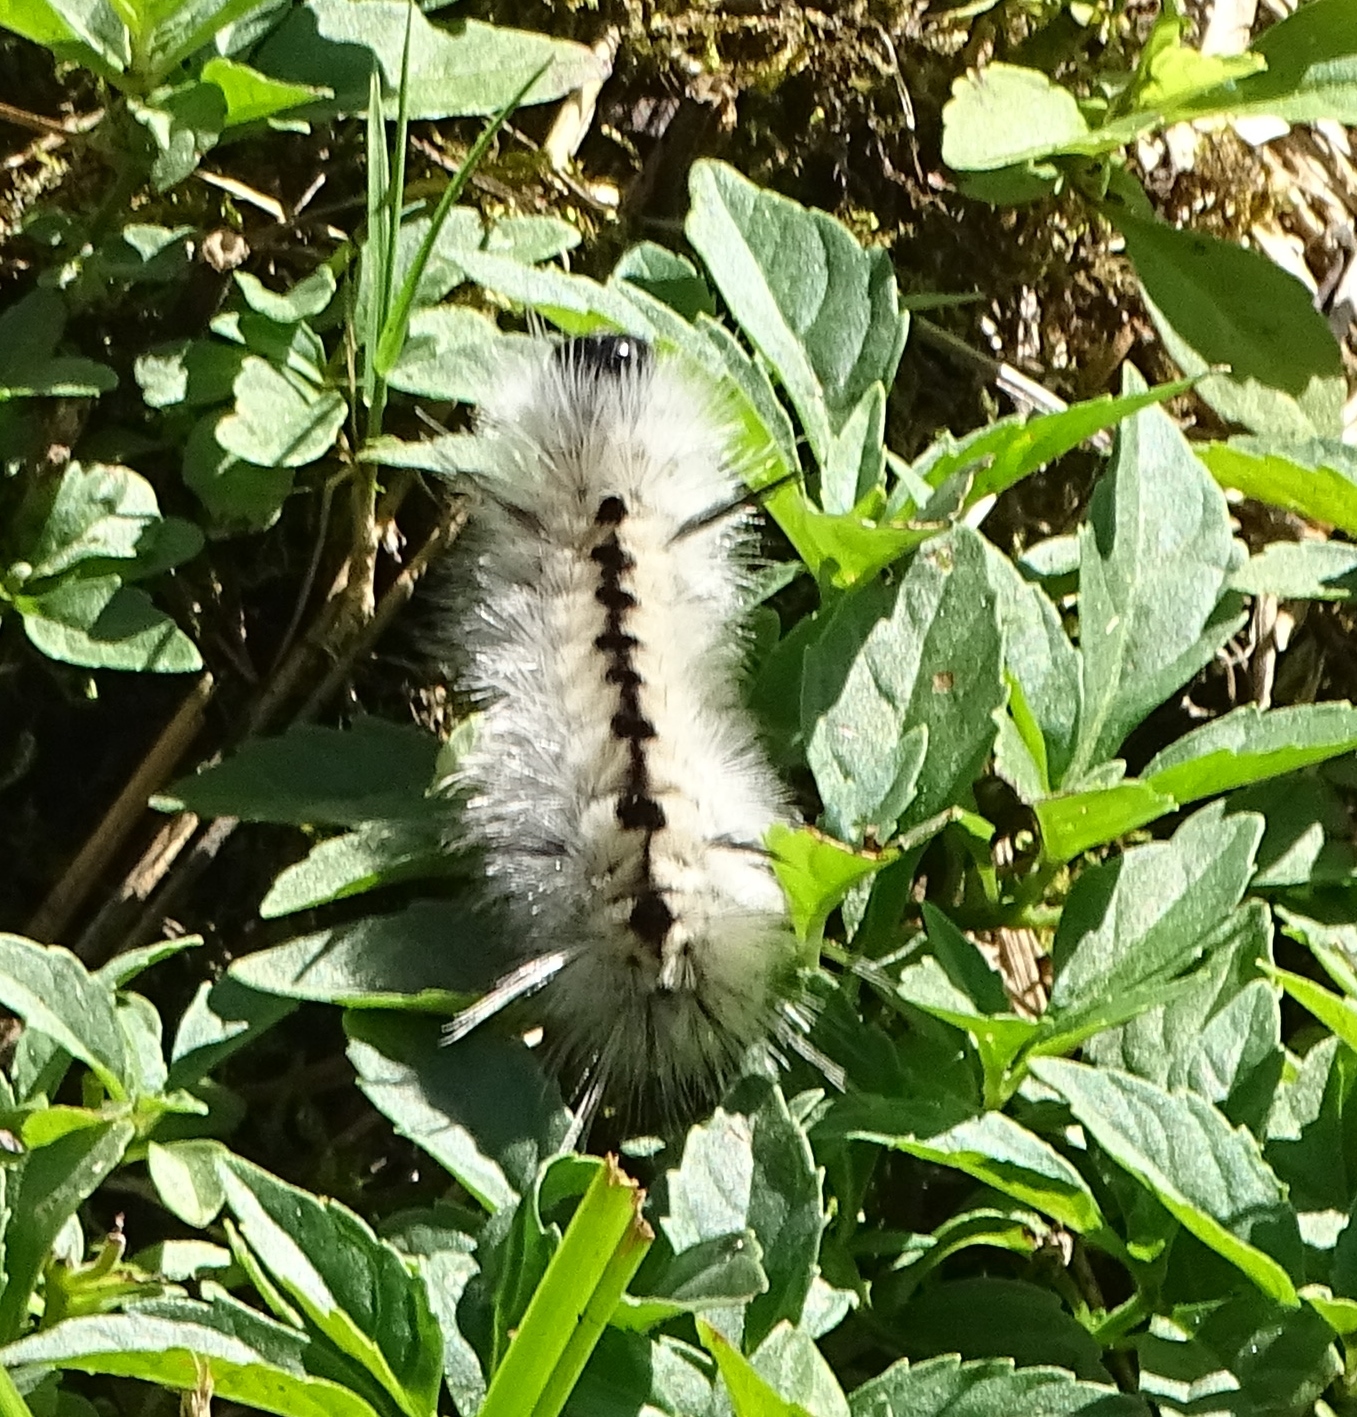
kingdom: Animalia
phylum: Arthropoda
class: Insecta
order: Lepidoptera
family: Erebidae
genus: Lophocampa
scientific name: Lophocampa caryae
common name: Hickory tussock moth
